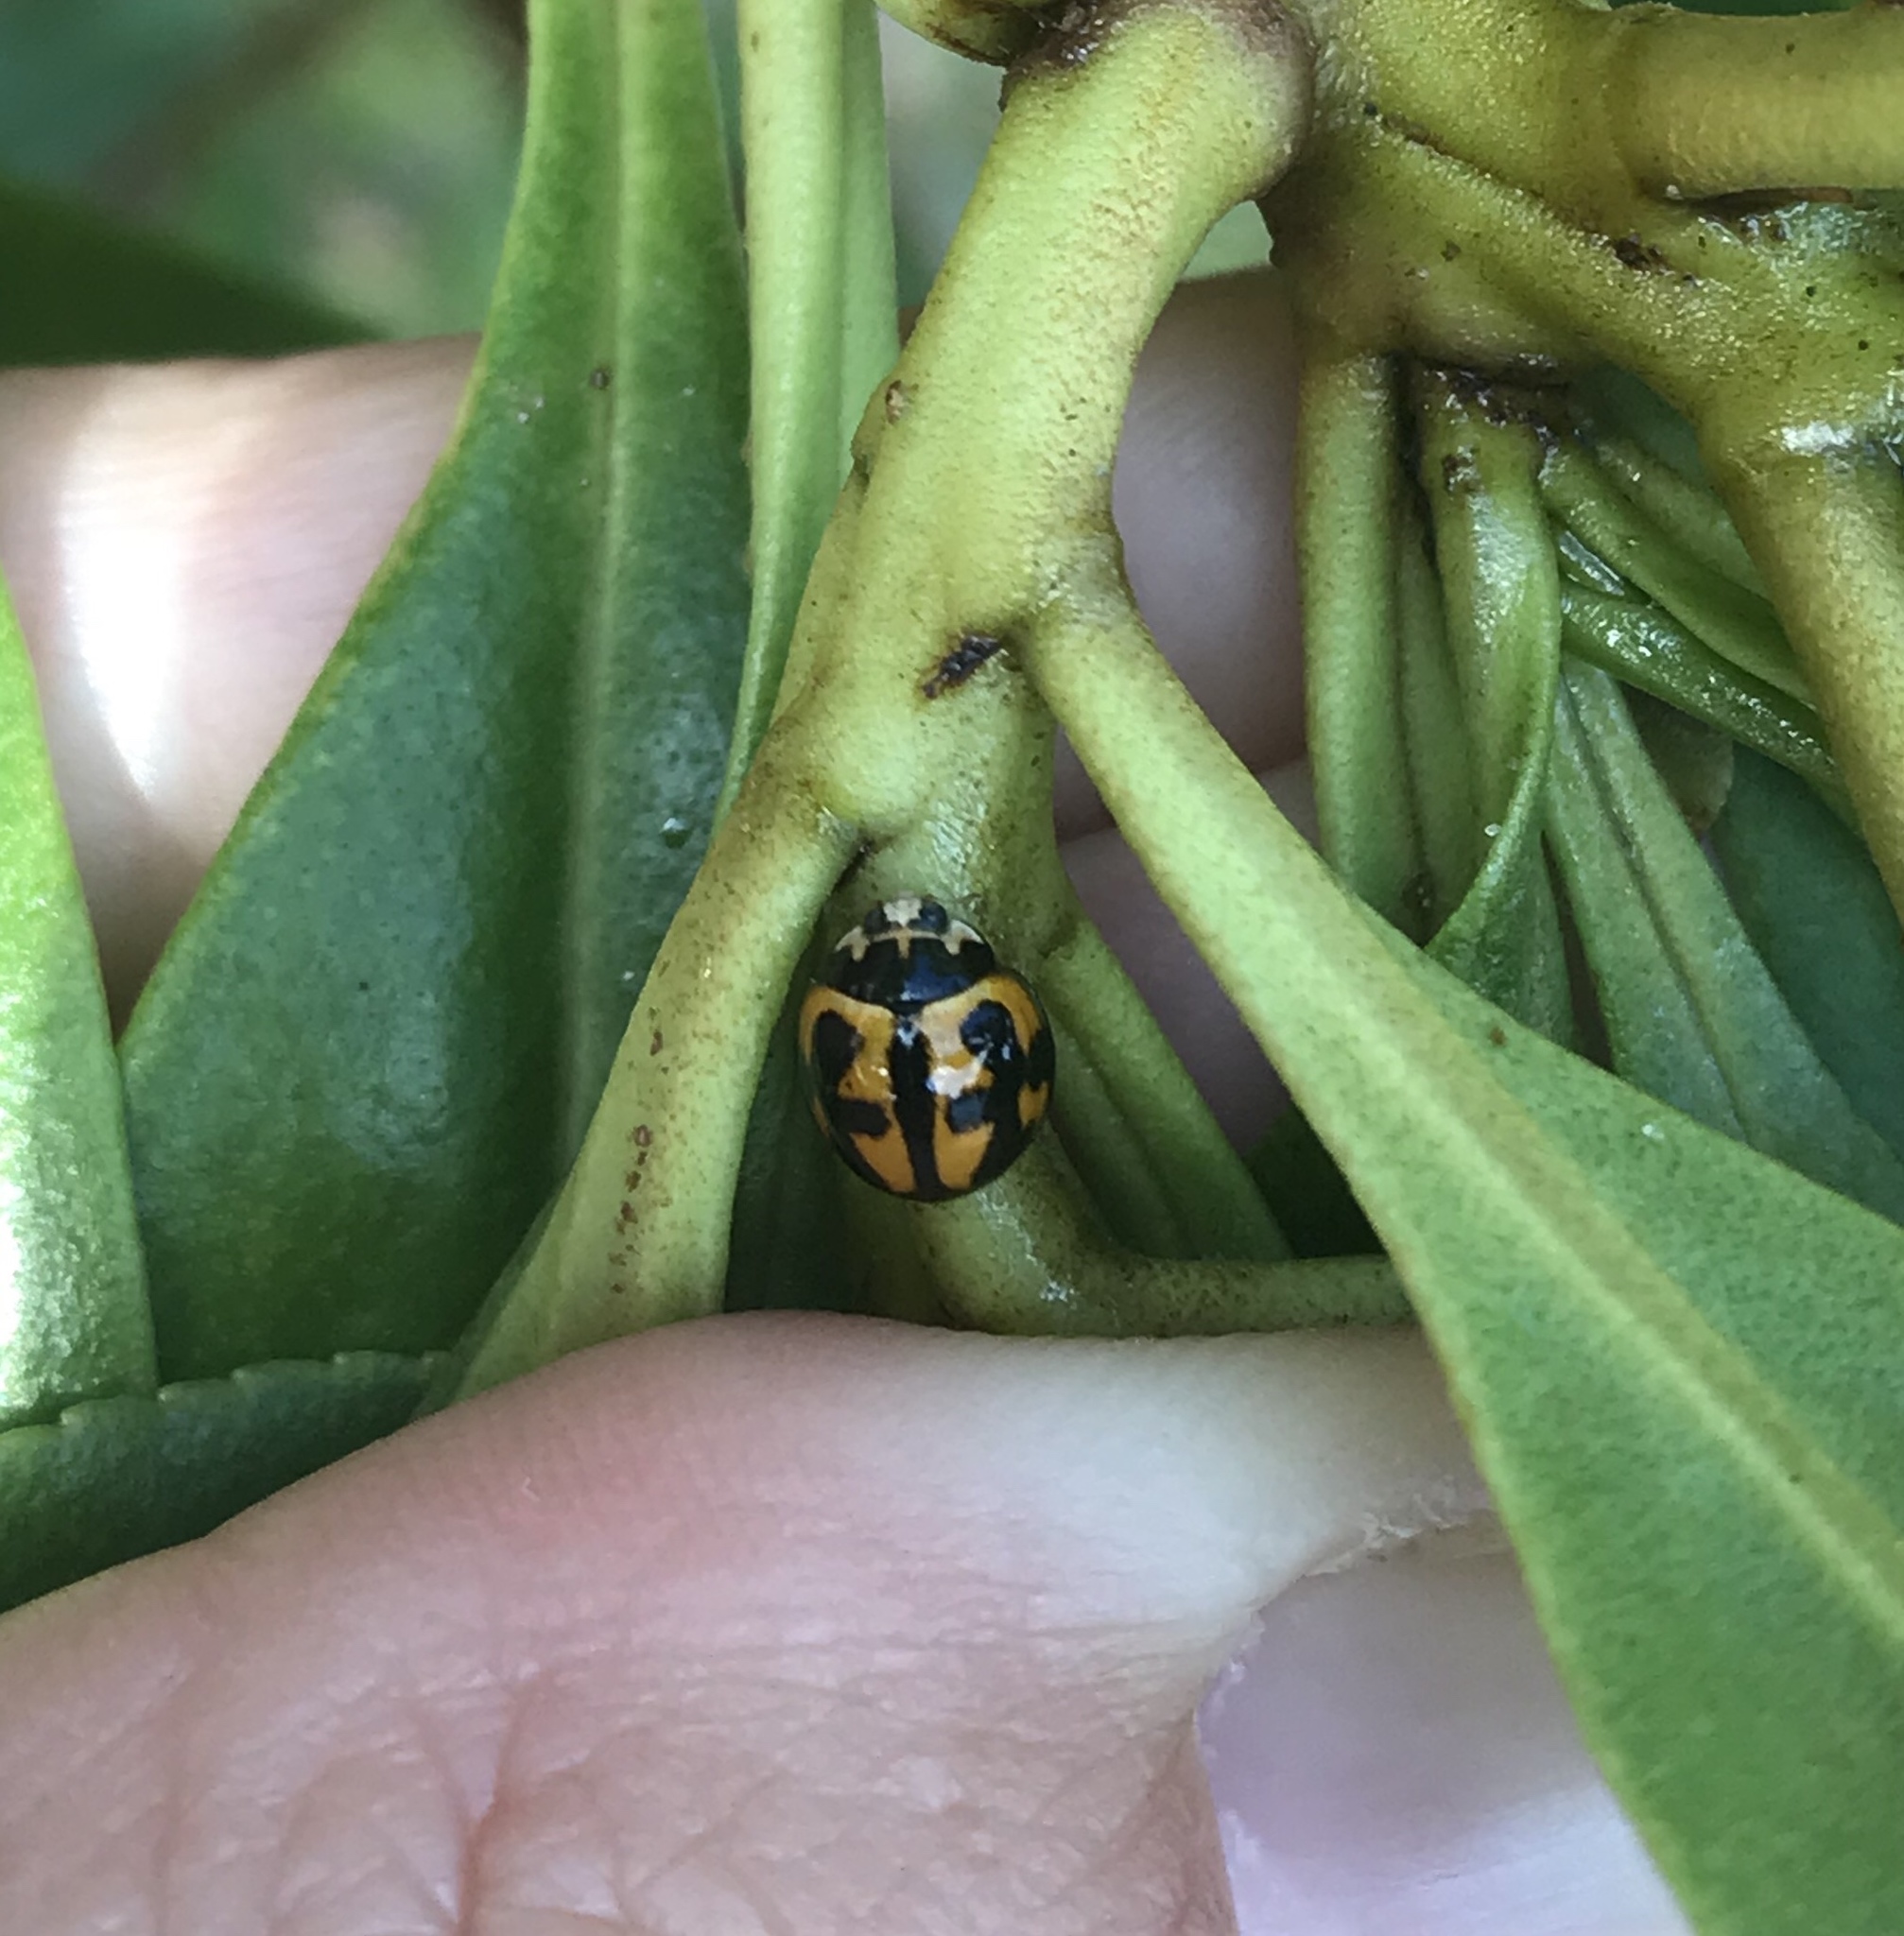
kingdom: Animalia
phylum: Arthropoda
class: Insecta
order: Coleoptera
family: Coccinellidae
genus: Coelophora
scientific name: Coelophora inaequalis
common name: Common australian lady beetle
